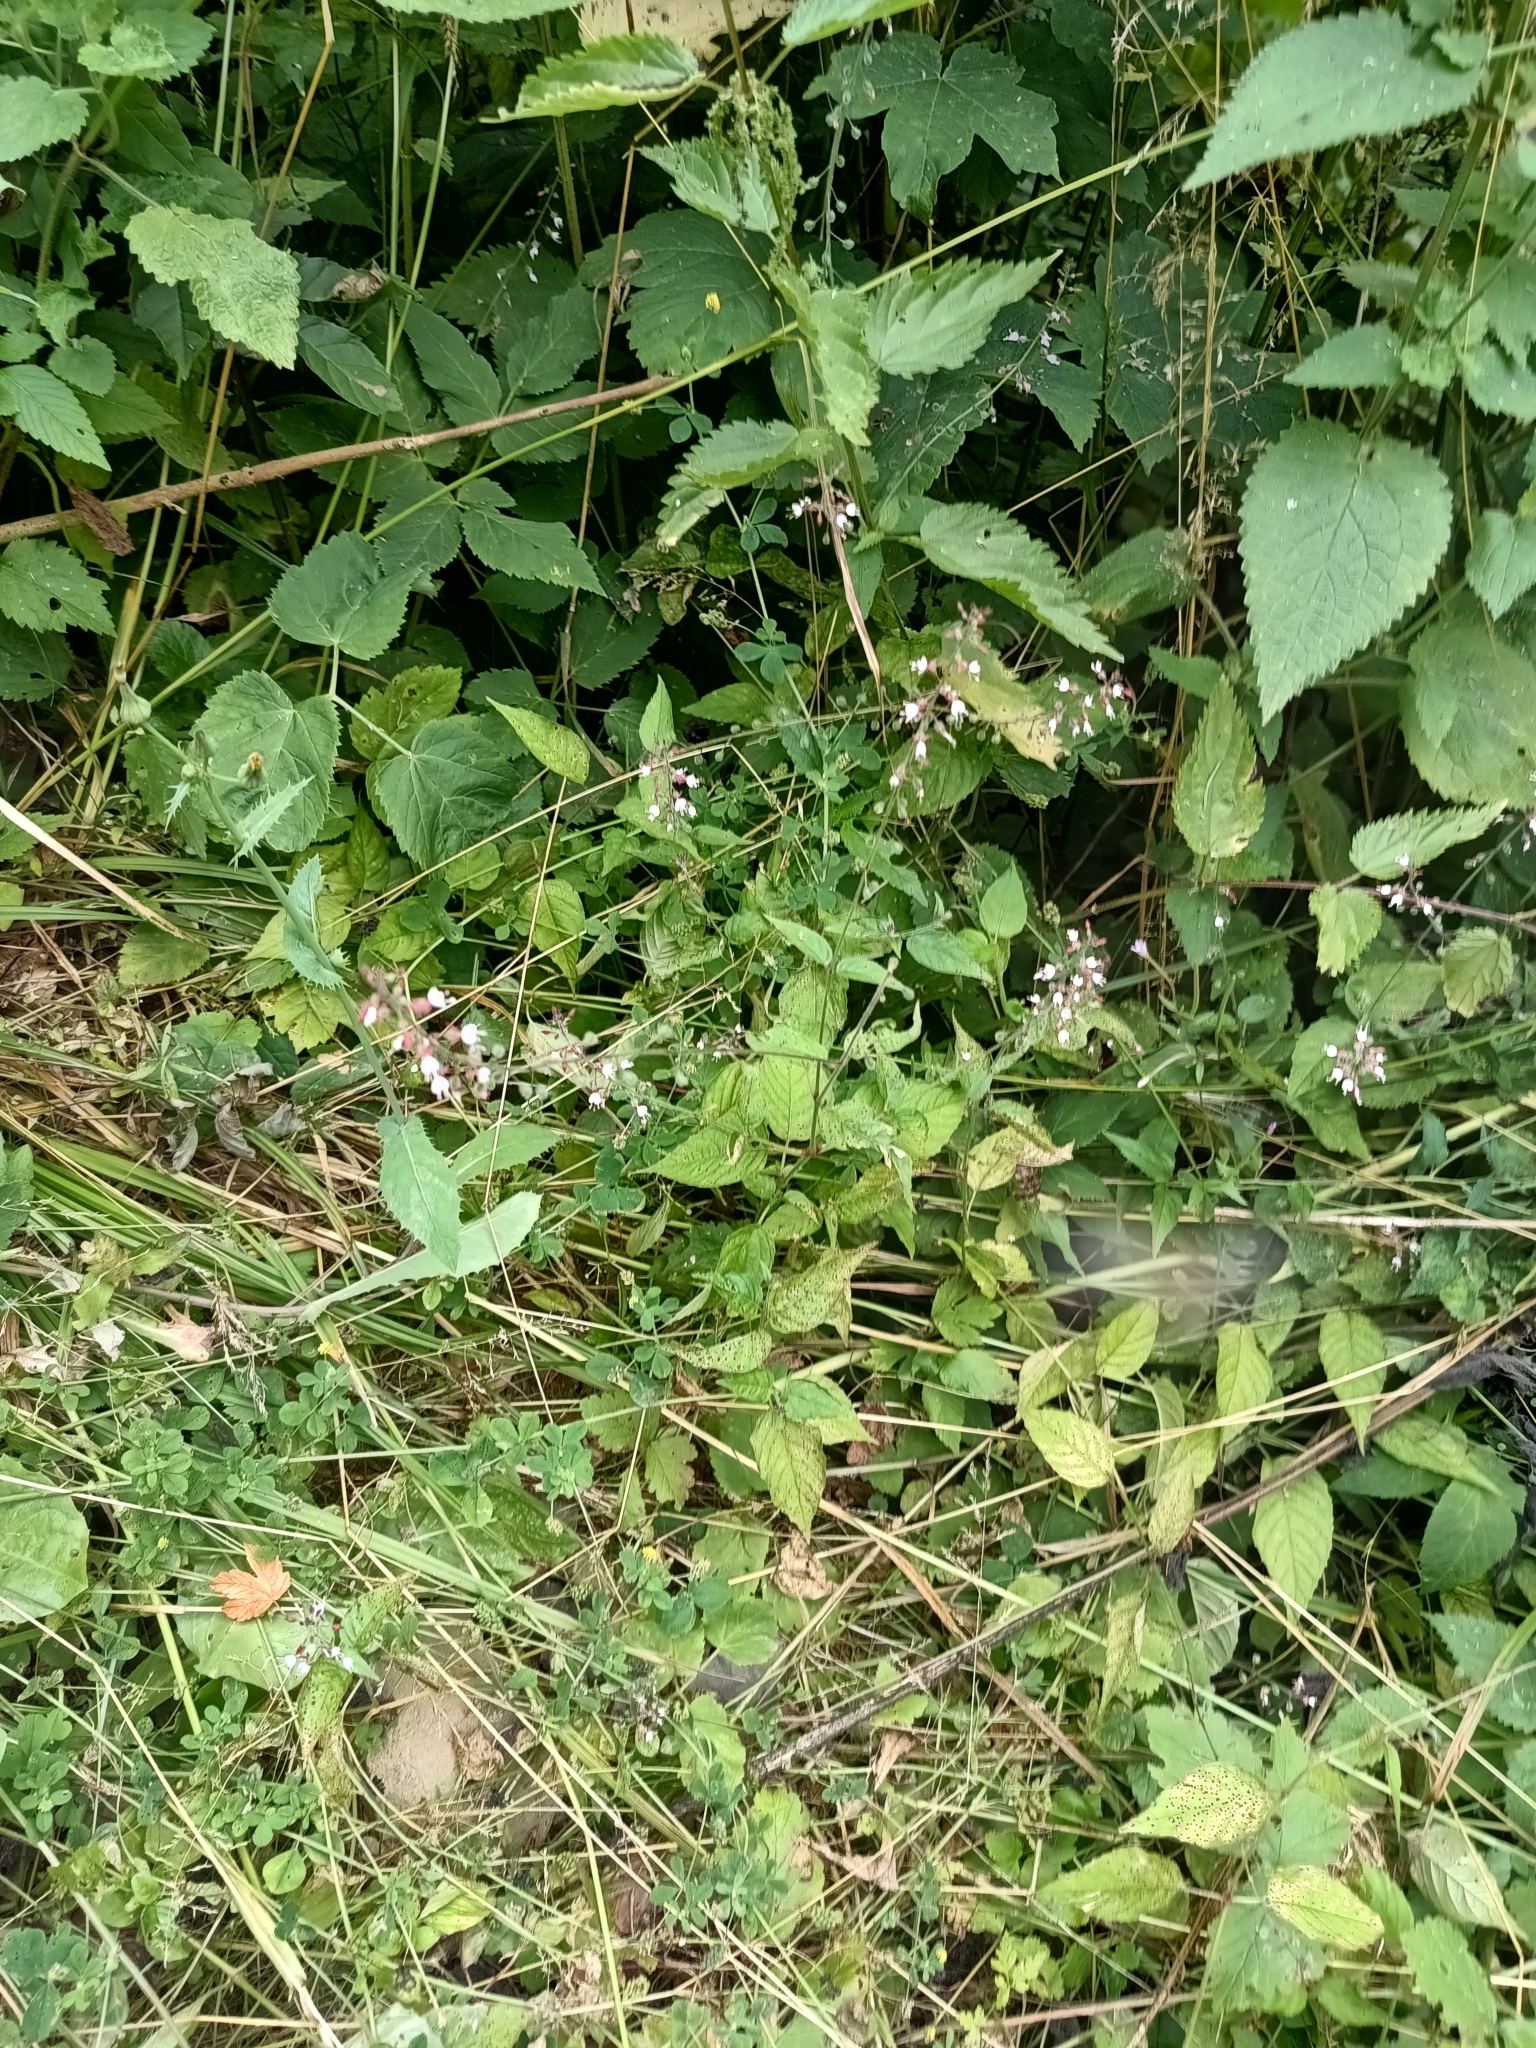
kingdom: Plantae
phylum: Tracheophyta
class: Magnoliopsida
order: Myrtales
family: Onagraceae
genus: Circaea
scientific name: Circaea lutetiana
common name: Enchanter's-nightshade
